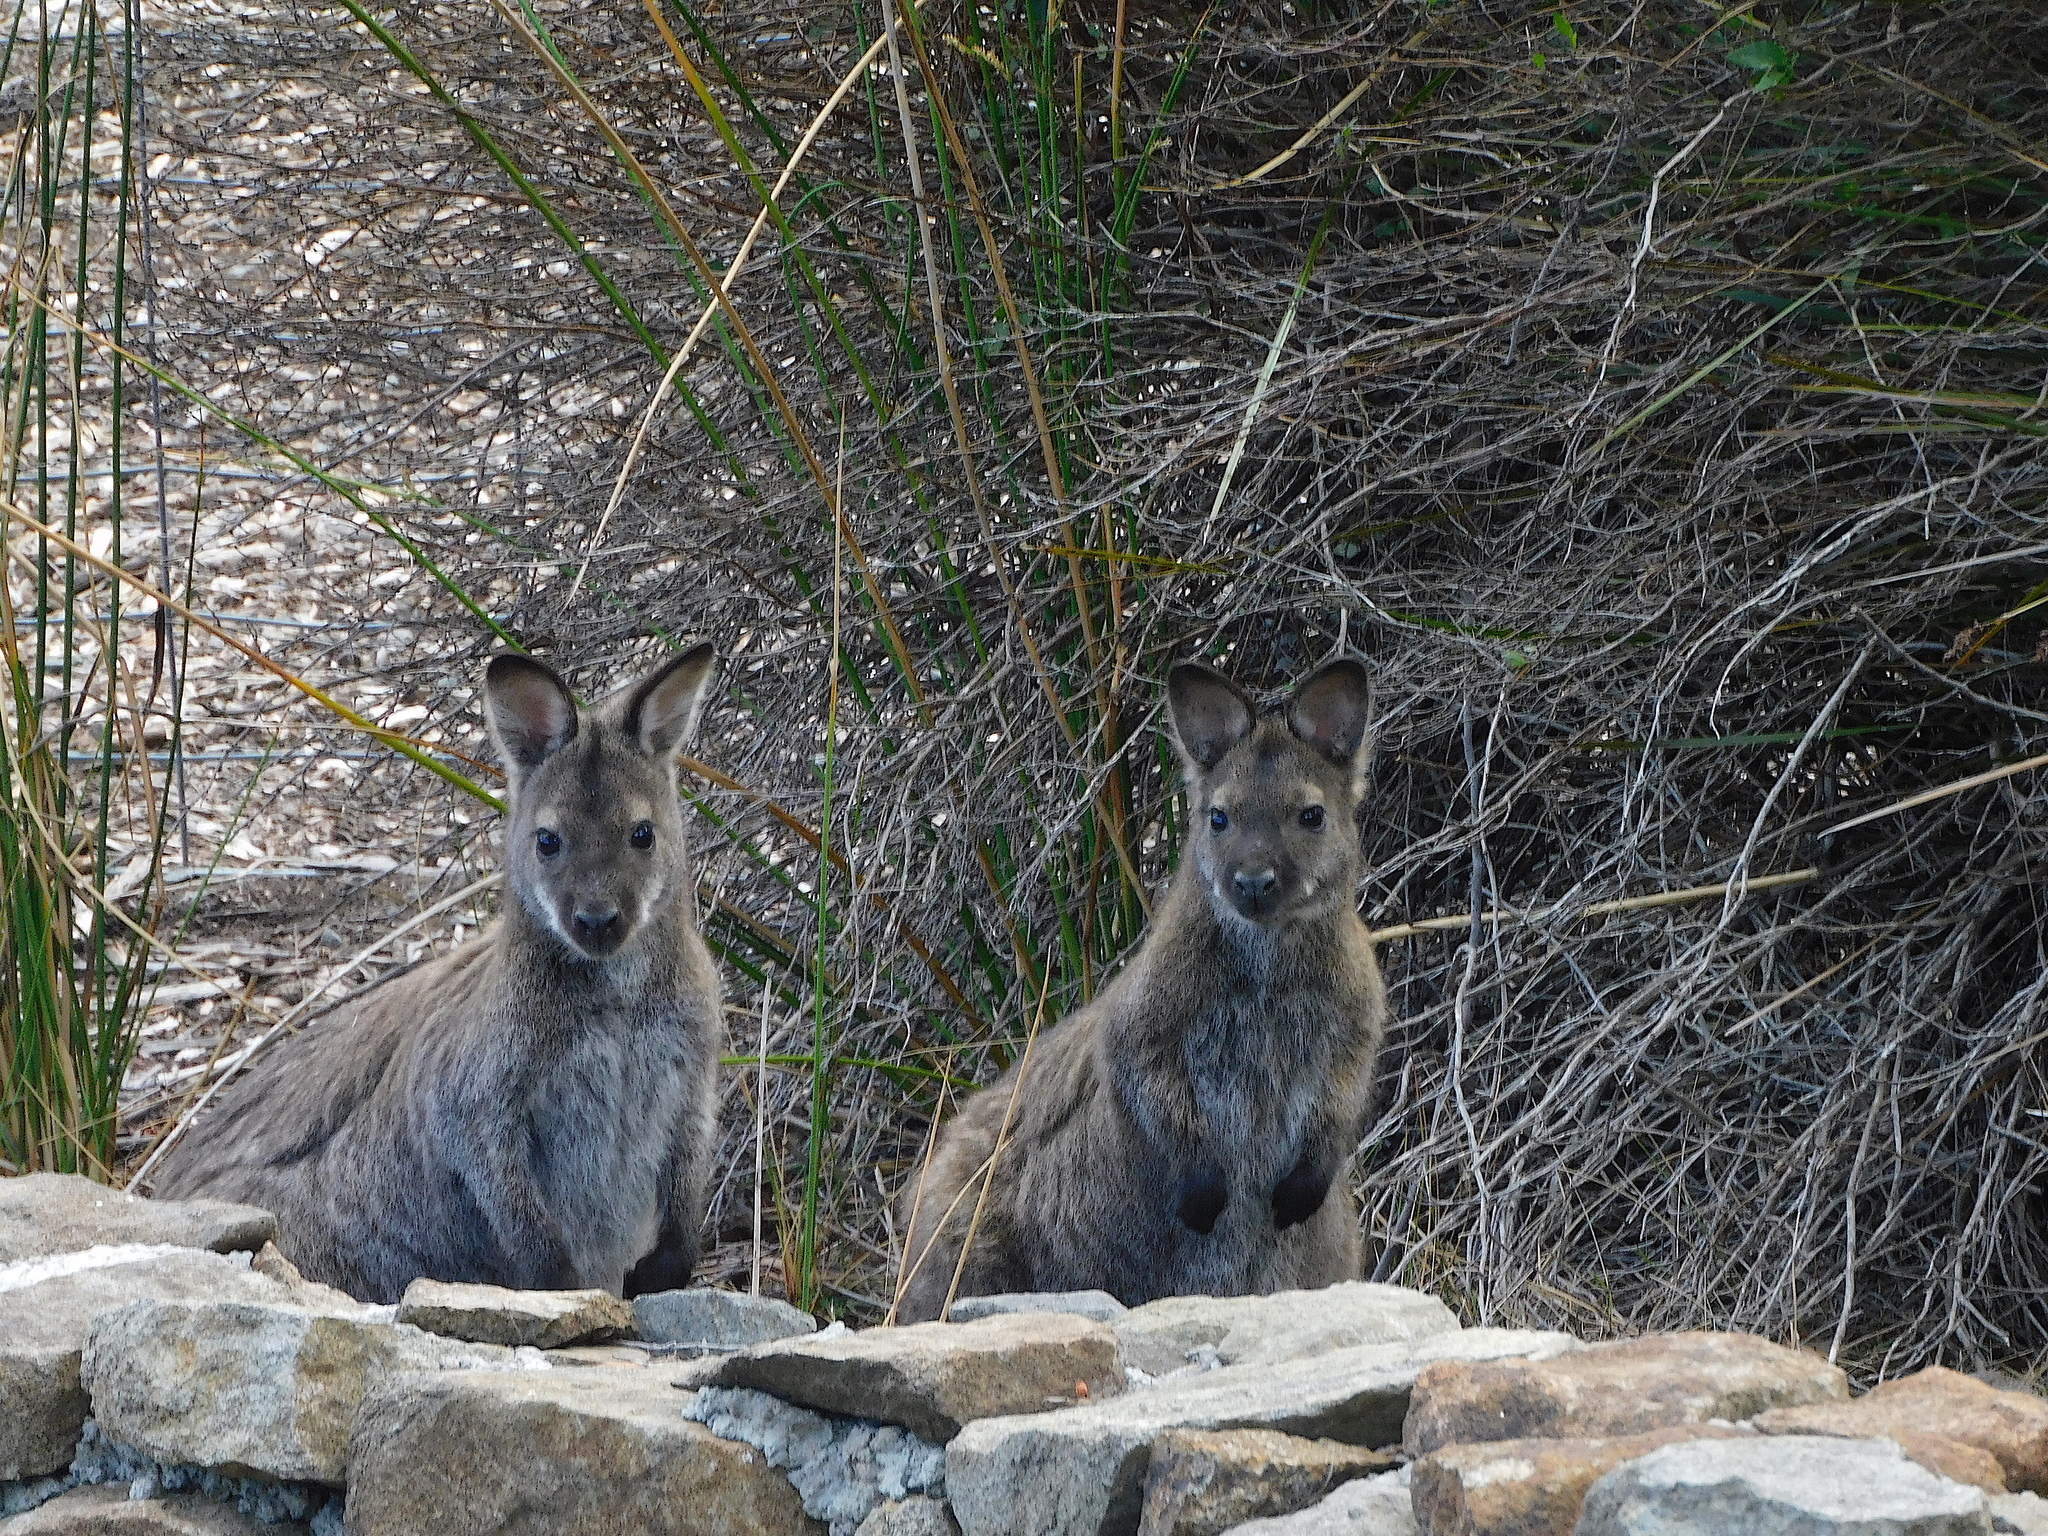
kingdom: Animalia
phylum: Chordata
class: Mammalia
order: Diprotodontia
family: Macropodidae
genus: Notamacropus
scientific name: Notamacropus rufogriseus
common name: Red-necked wallaby
